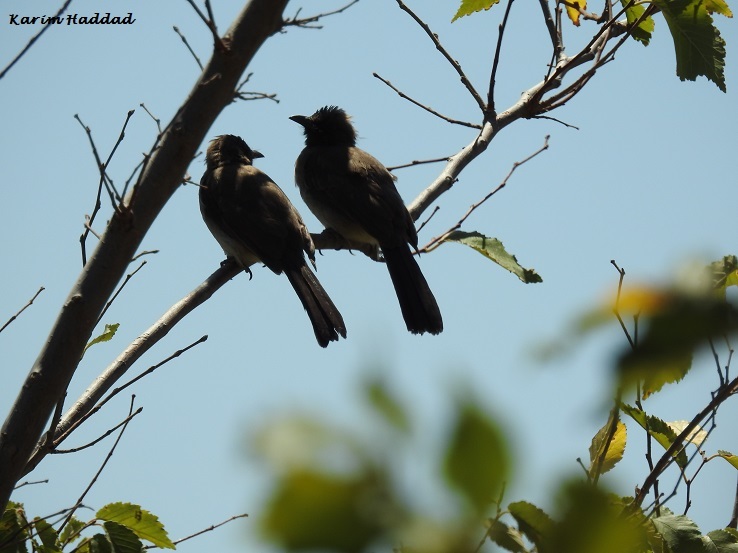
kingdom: Animalia
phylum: Chordata
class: Aves
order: Passeriformes
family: Pycnonotidae
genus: Pycnonotus
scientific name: Pycnonotus barbatus
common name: Common bulbul
